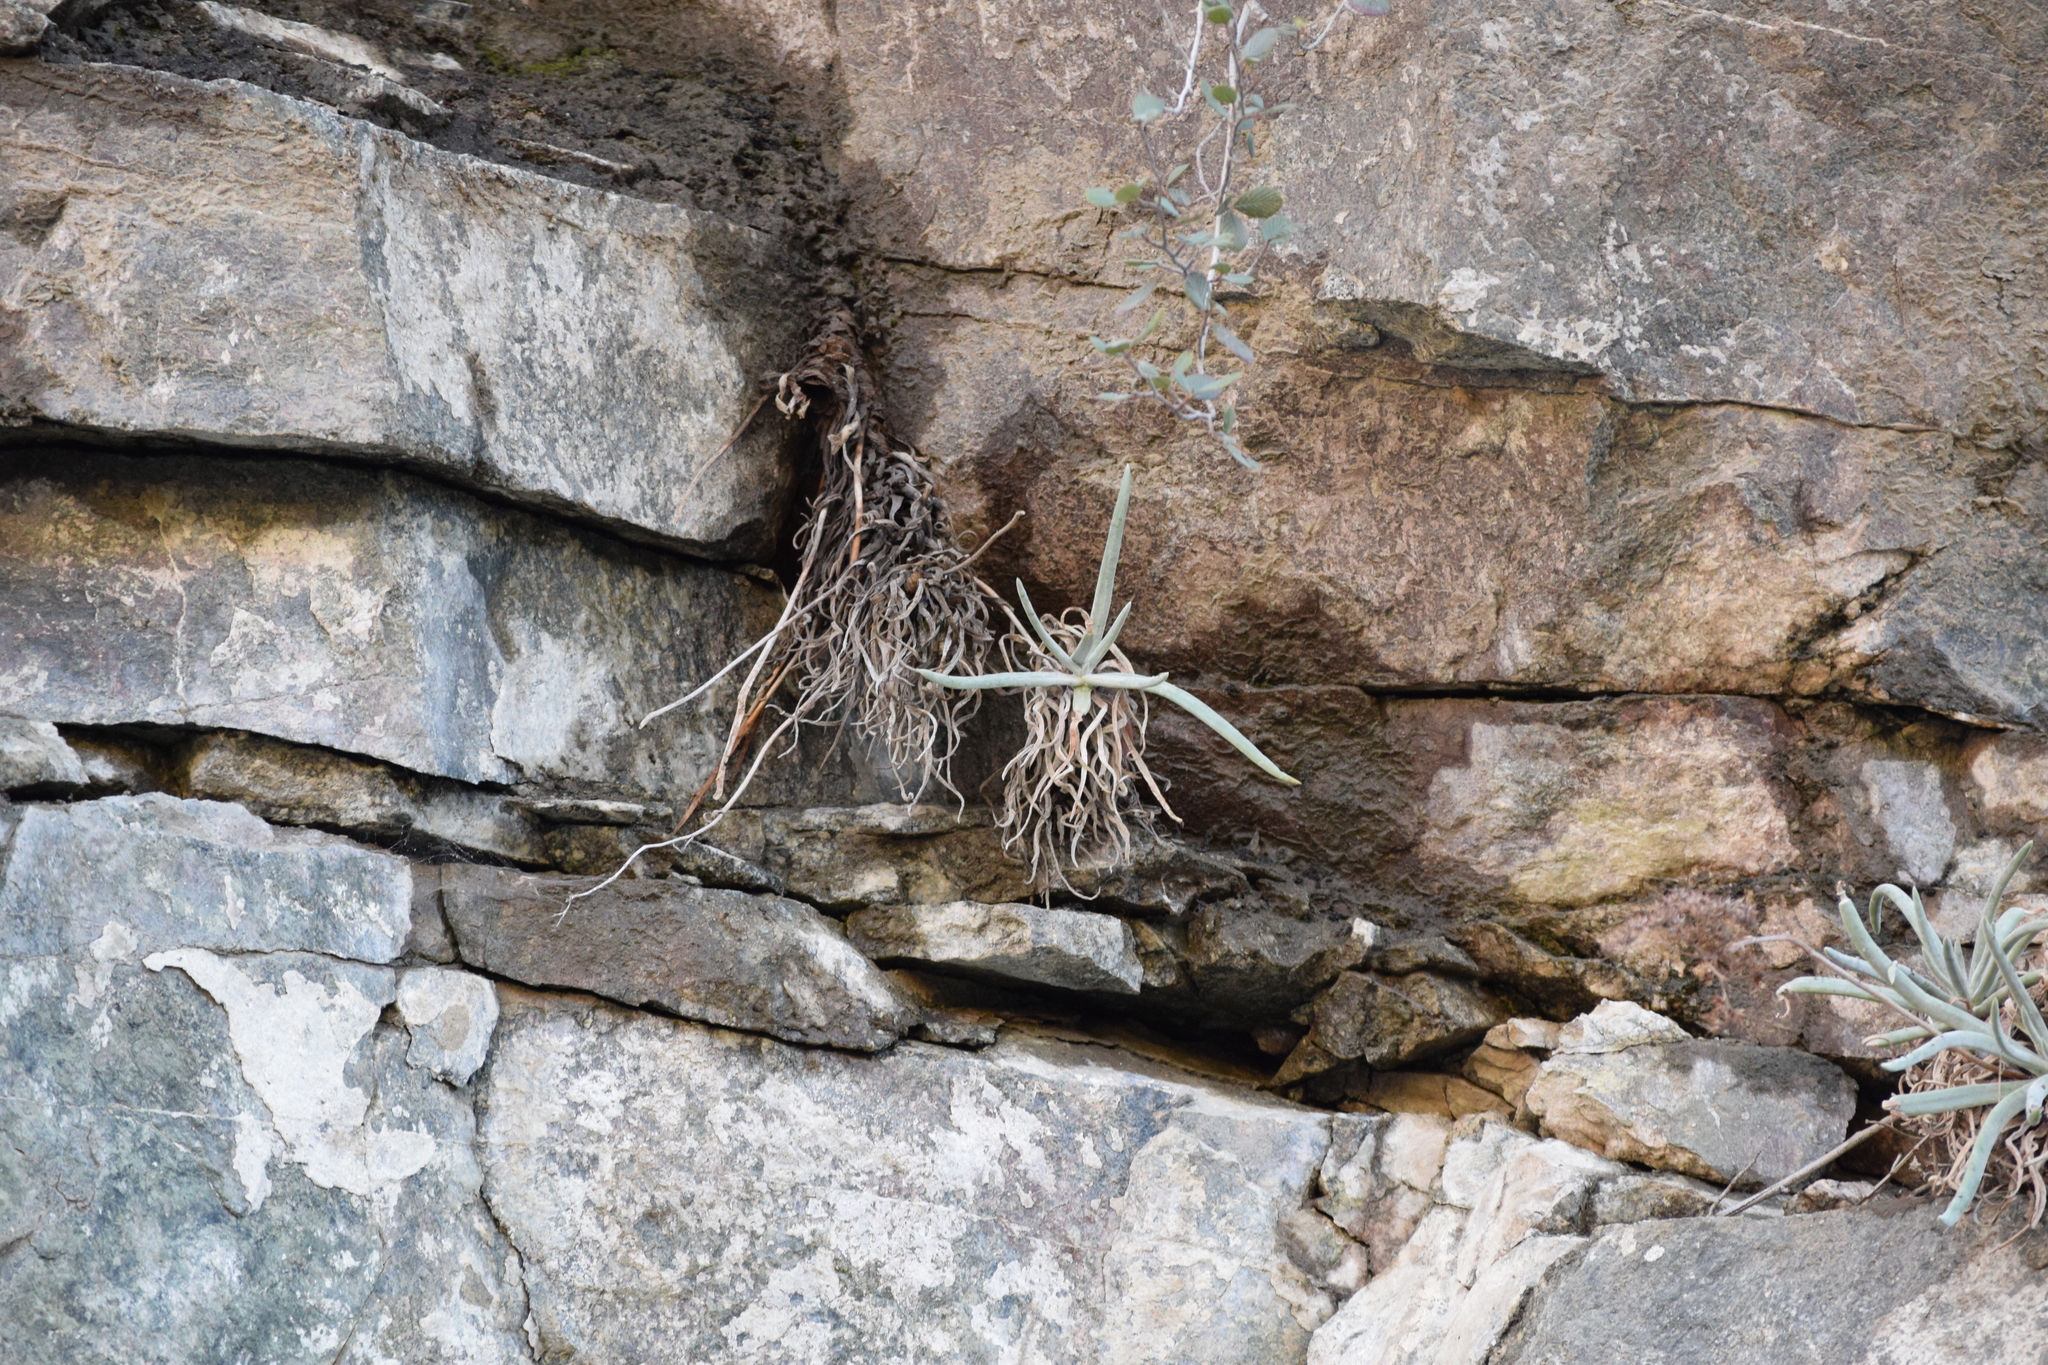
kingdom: Plantae
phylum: Tracheophyta
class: Magnoliopsida
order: Saxifragales
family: Crassulaceae
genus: Dudleya
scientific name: Dudleya densiflora
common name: San gabriel mountains dudleya
